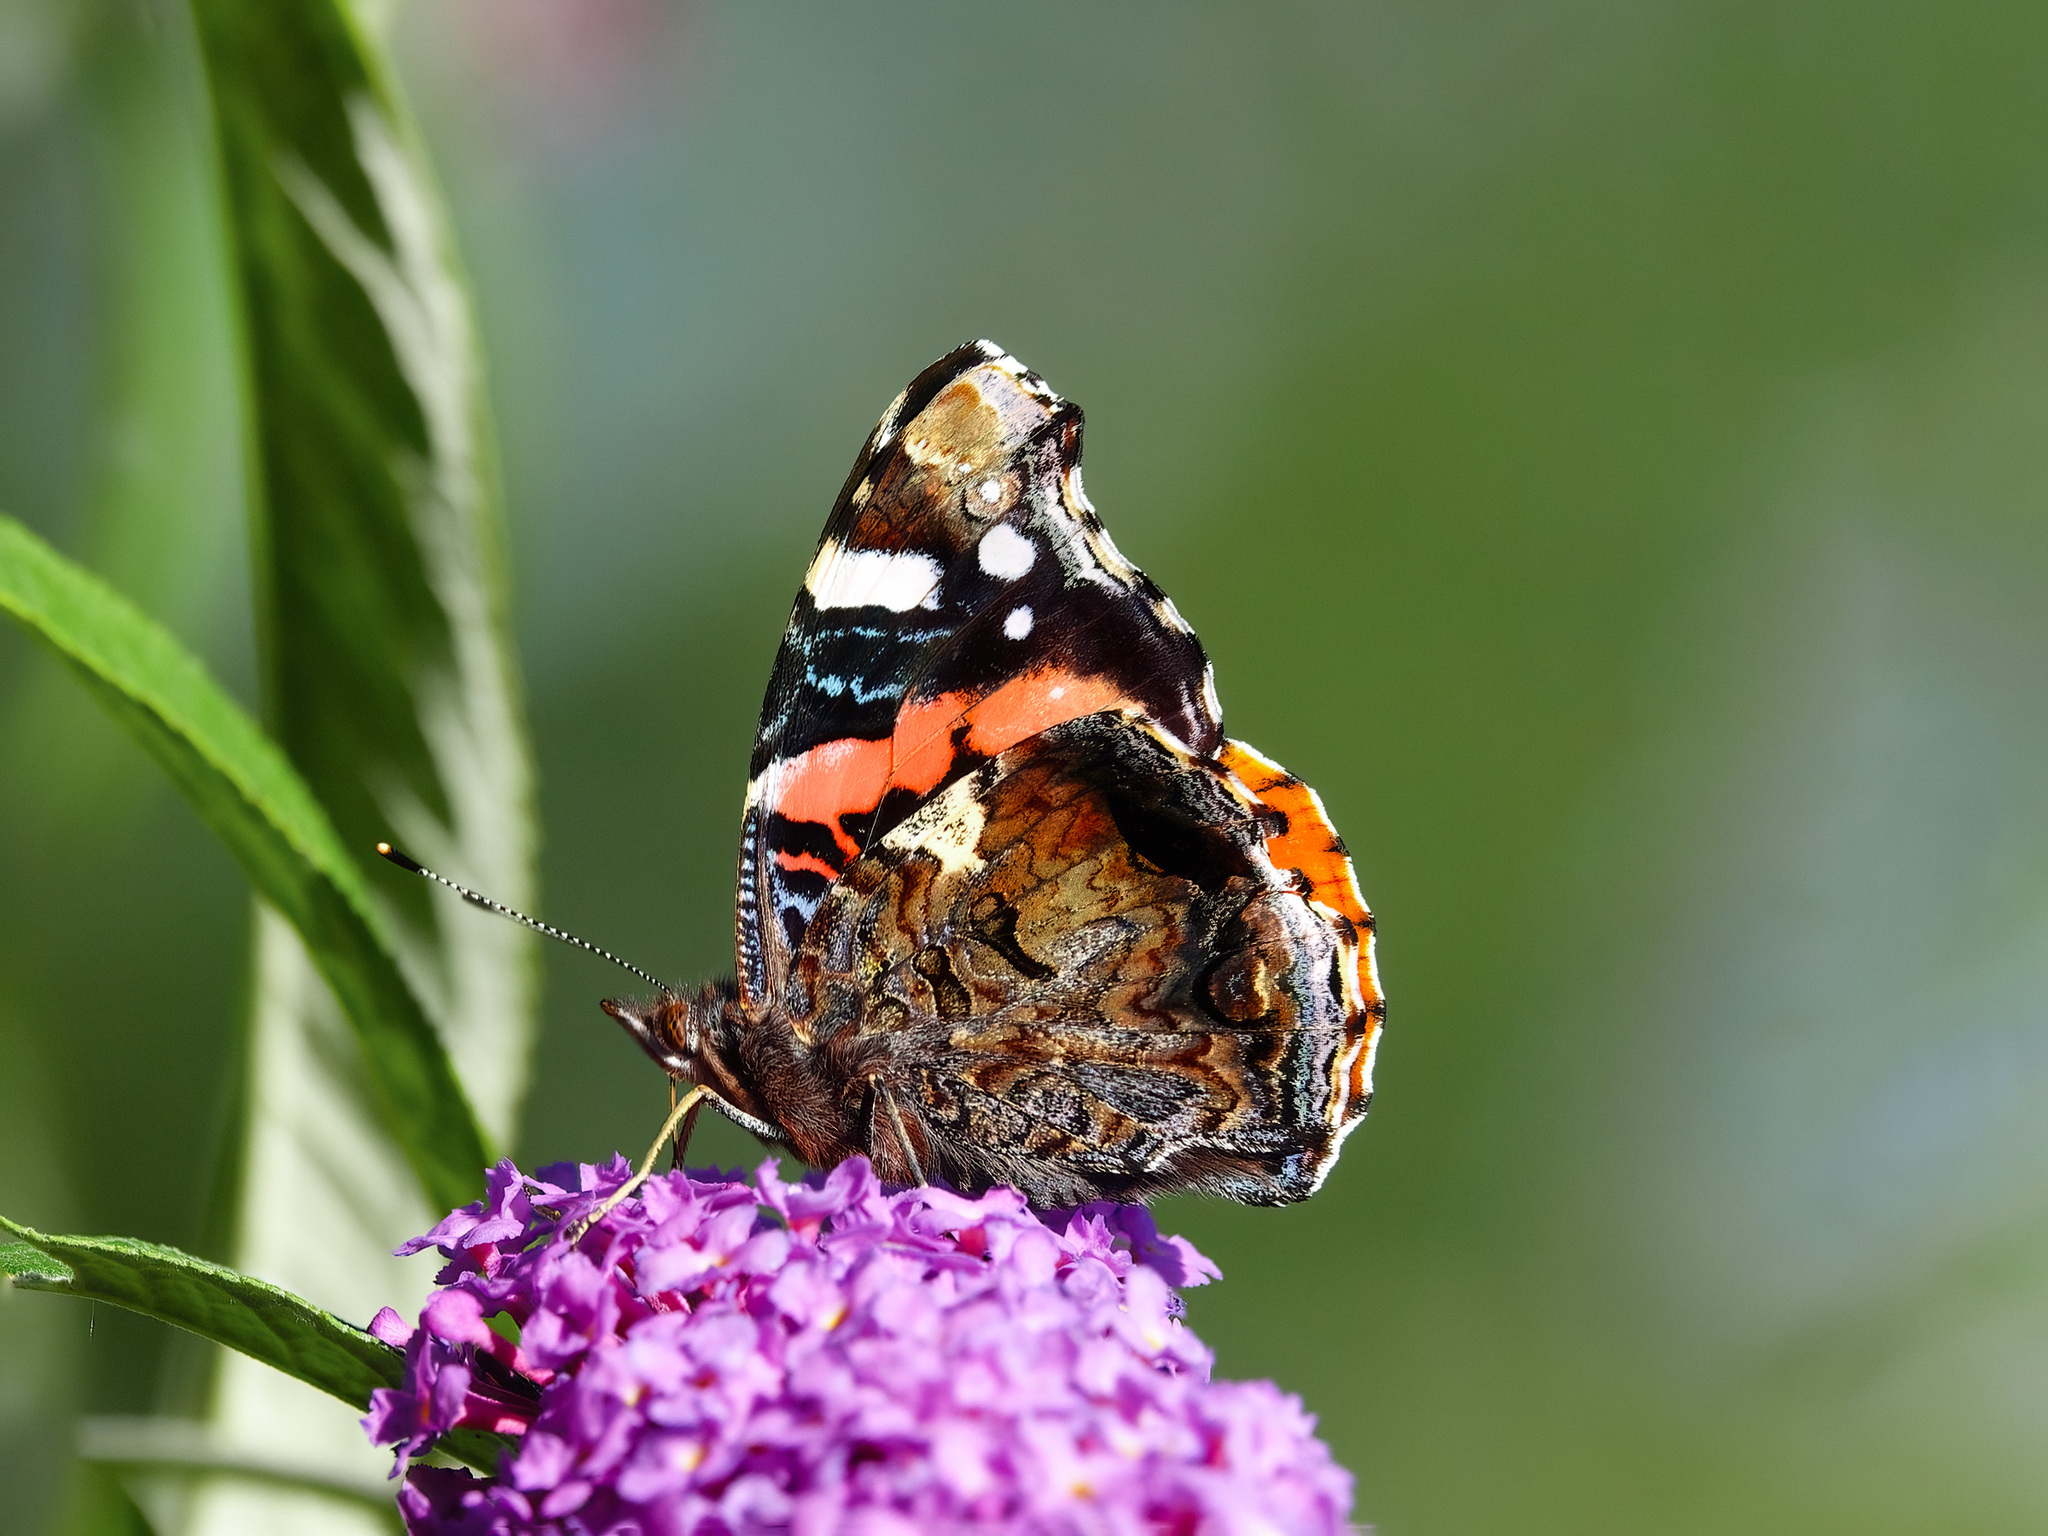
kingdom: Animalia
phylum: Arthropoda
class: Insecta
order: Lepidoptera
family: Nymphalidae
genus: Vanessa
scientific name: Vanessa atalanta
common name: Red admiral
